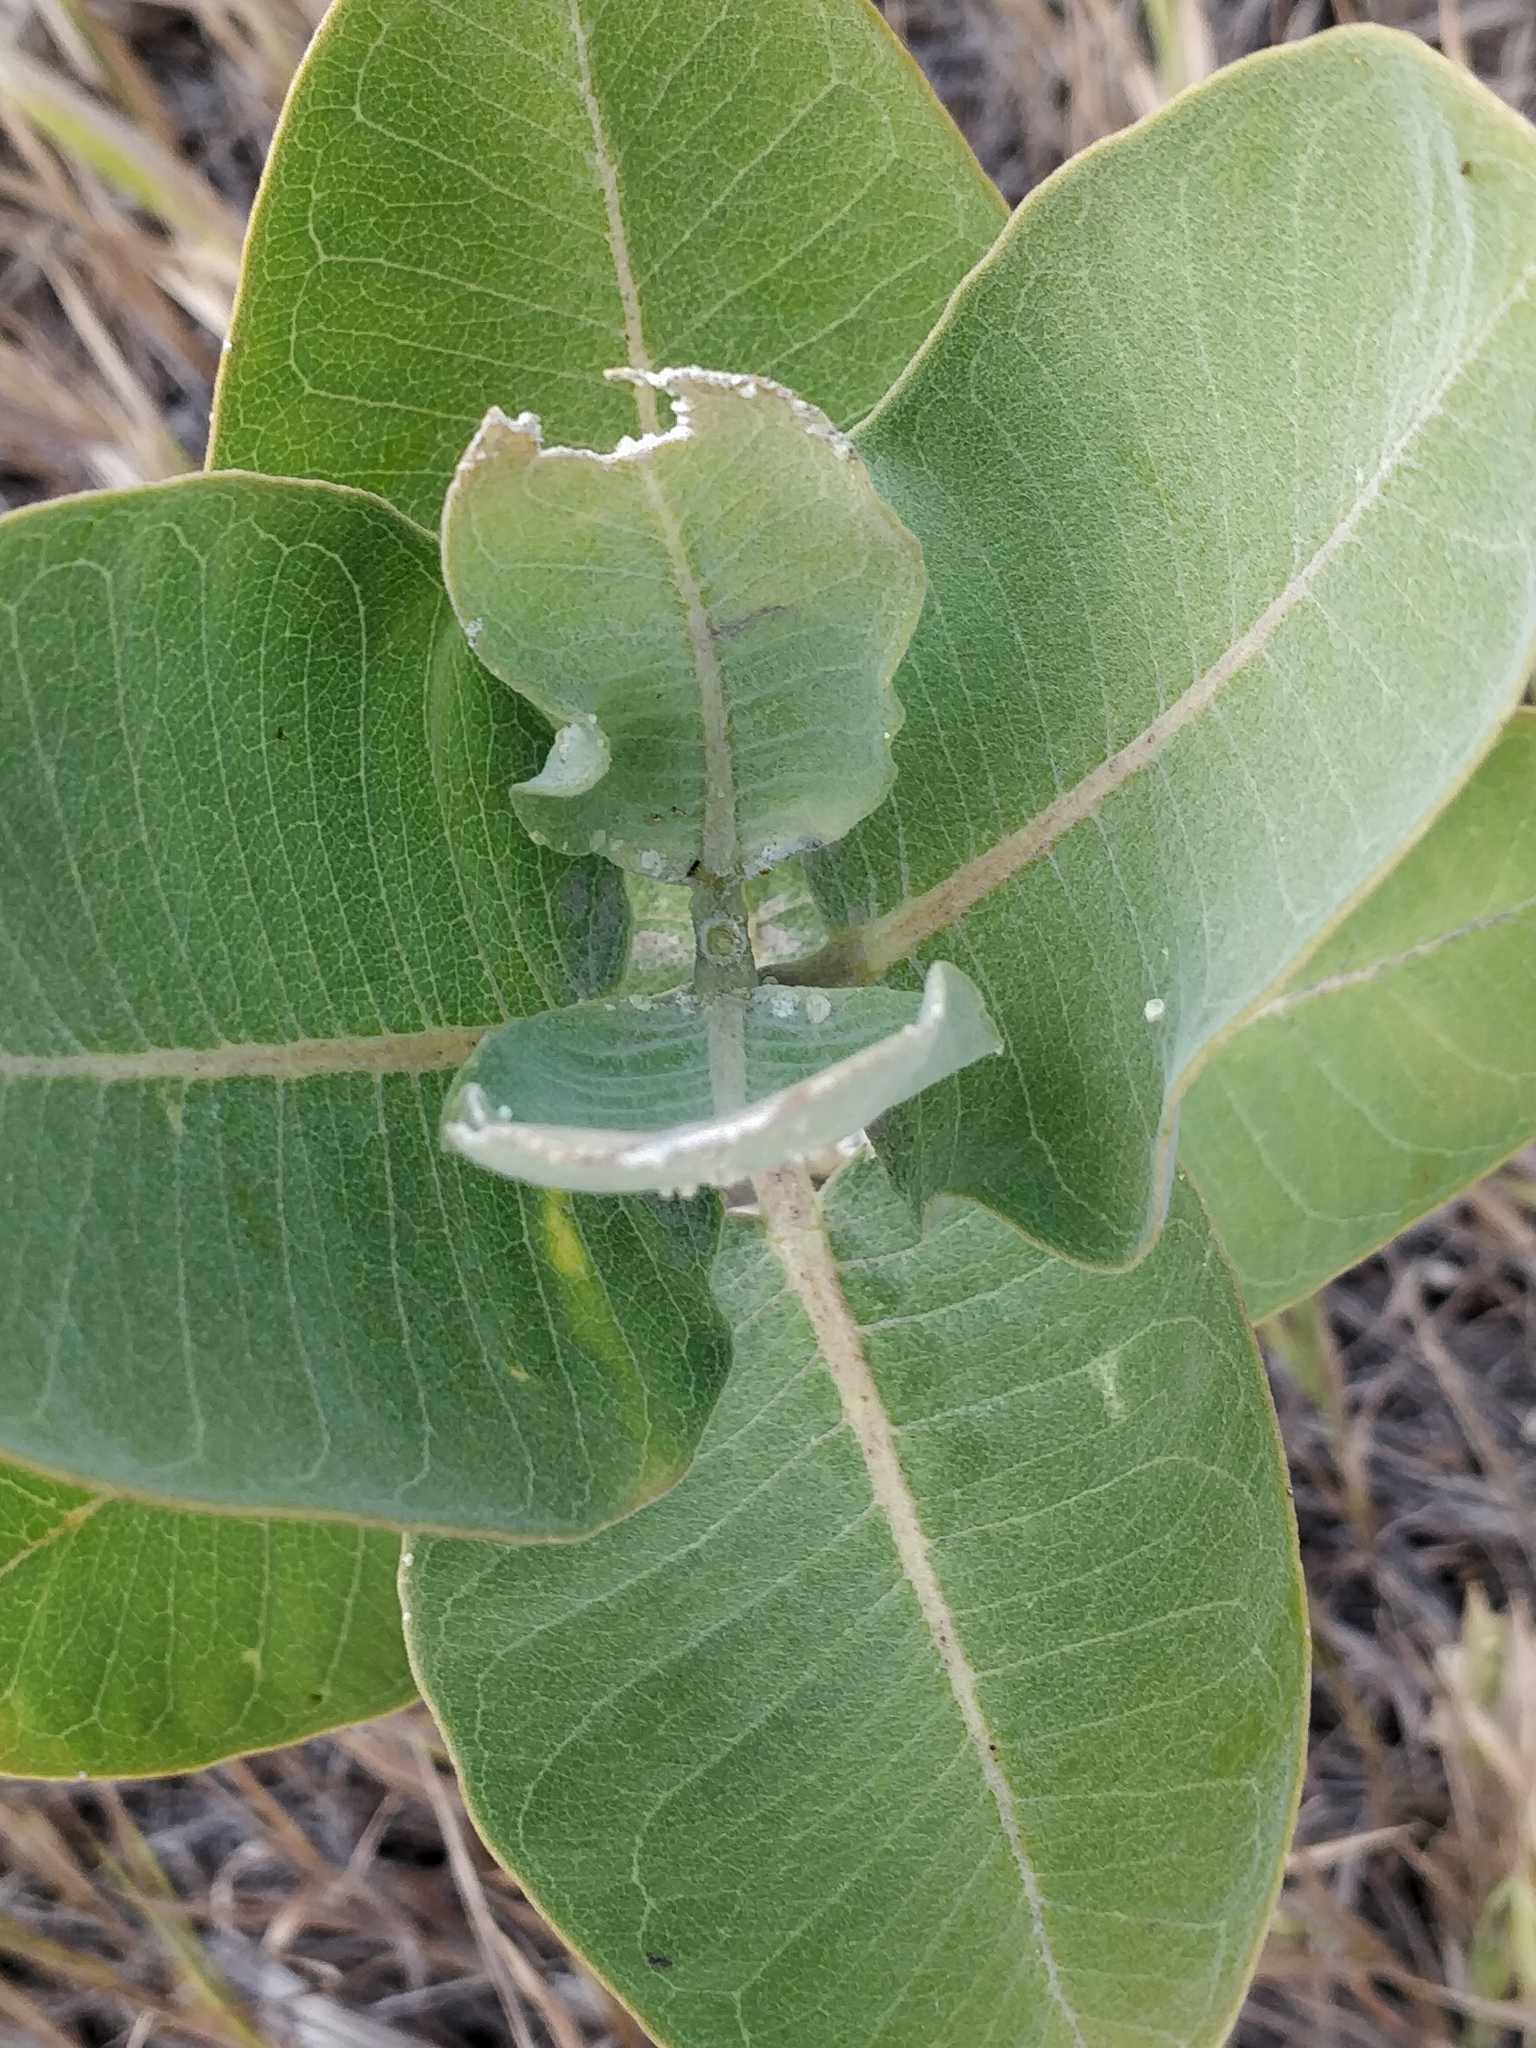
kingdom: Plantae
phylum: Tracheophyta
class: Magnoliopsida
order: Gentianales
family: Apocynaceae
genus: Asclepias
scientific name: Asclepias speciosa
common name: Showy milkweed
